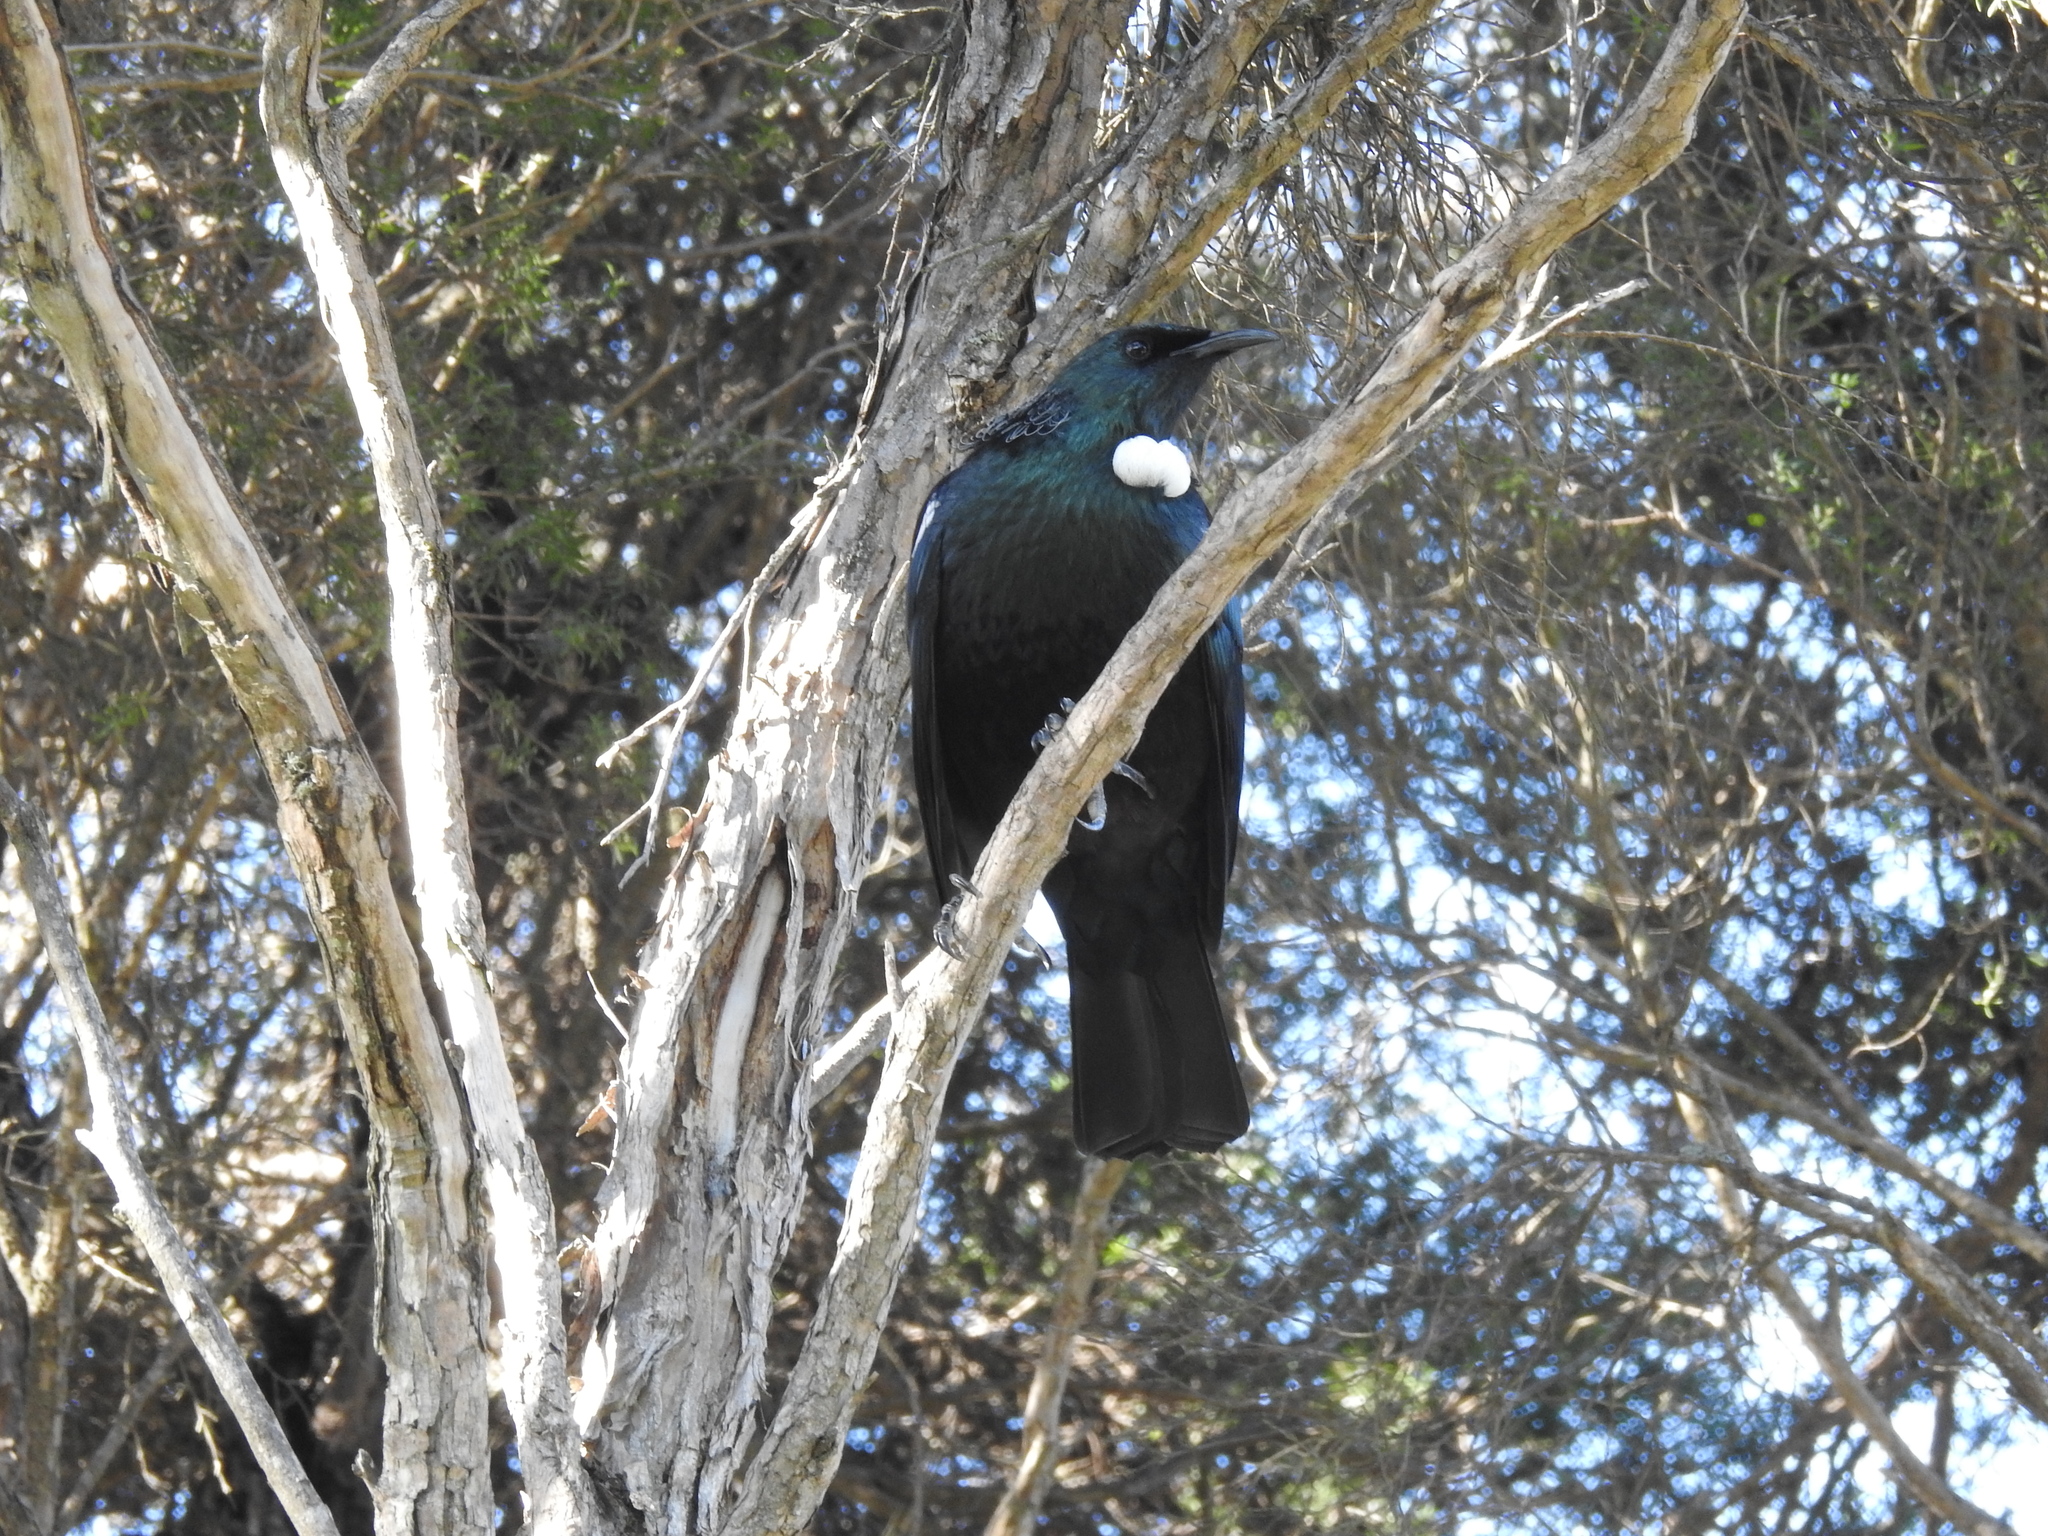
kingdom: Animalia
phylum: Chordata
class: Aves
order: Passeriformes
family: Meliphagidae
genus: Prosthemadera
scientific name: Prosthemadera novaeseelandiae
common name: Tui
